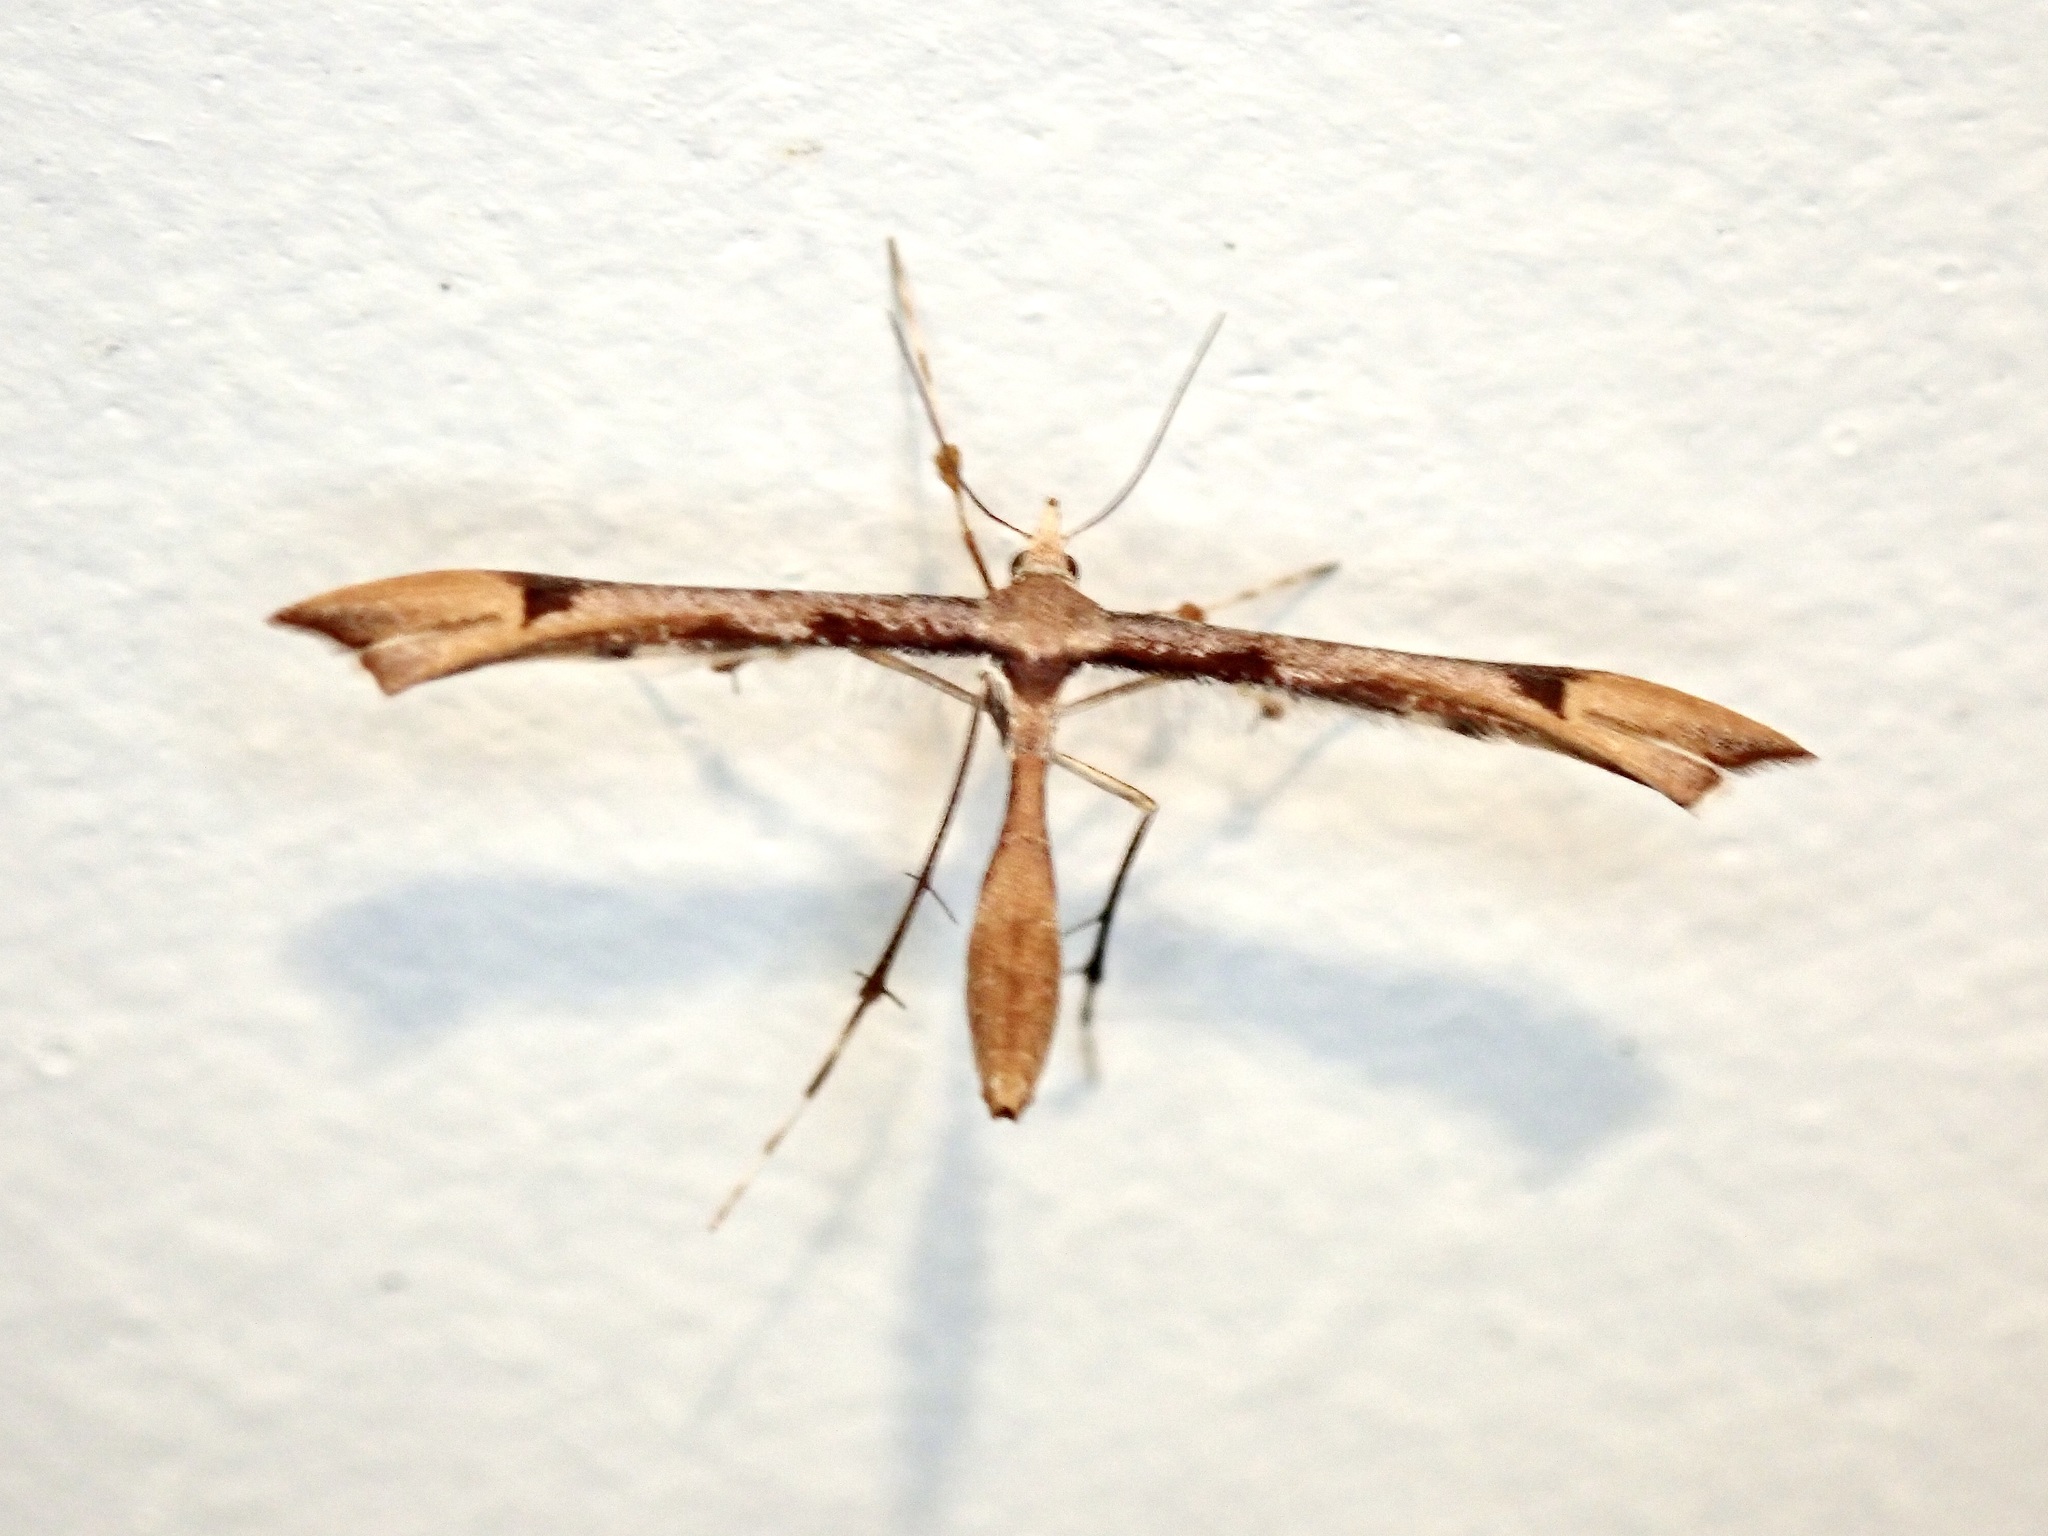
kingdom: Animalia
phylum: Arthropoda
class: Insecta
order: Lepidoptera
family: Pterophoridae
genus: Amblyptilia
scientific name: Amblyptilia heliastis
